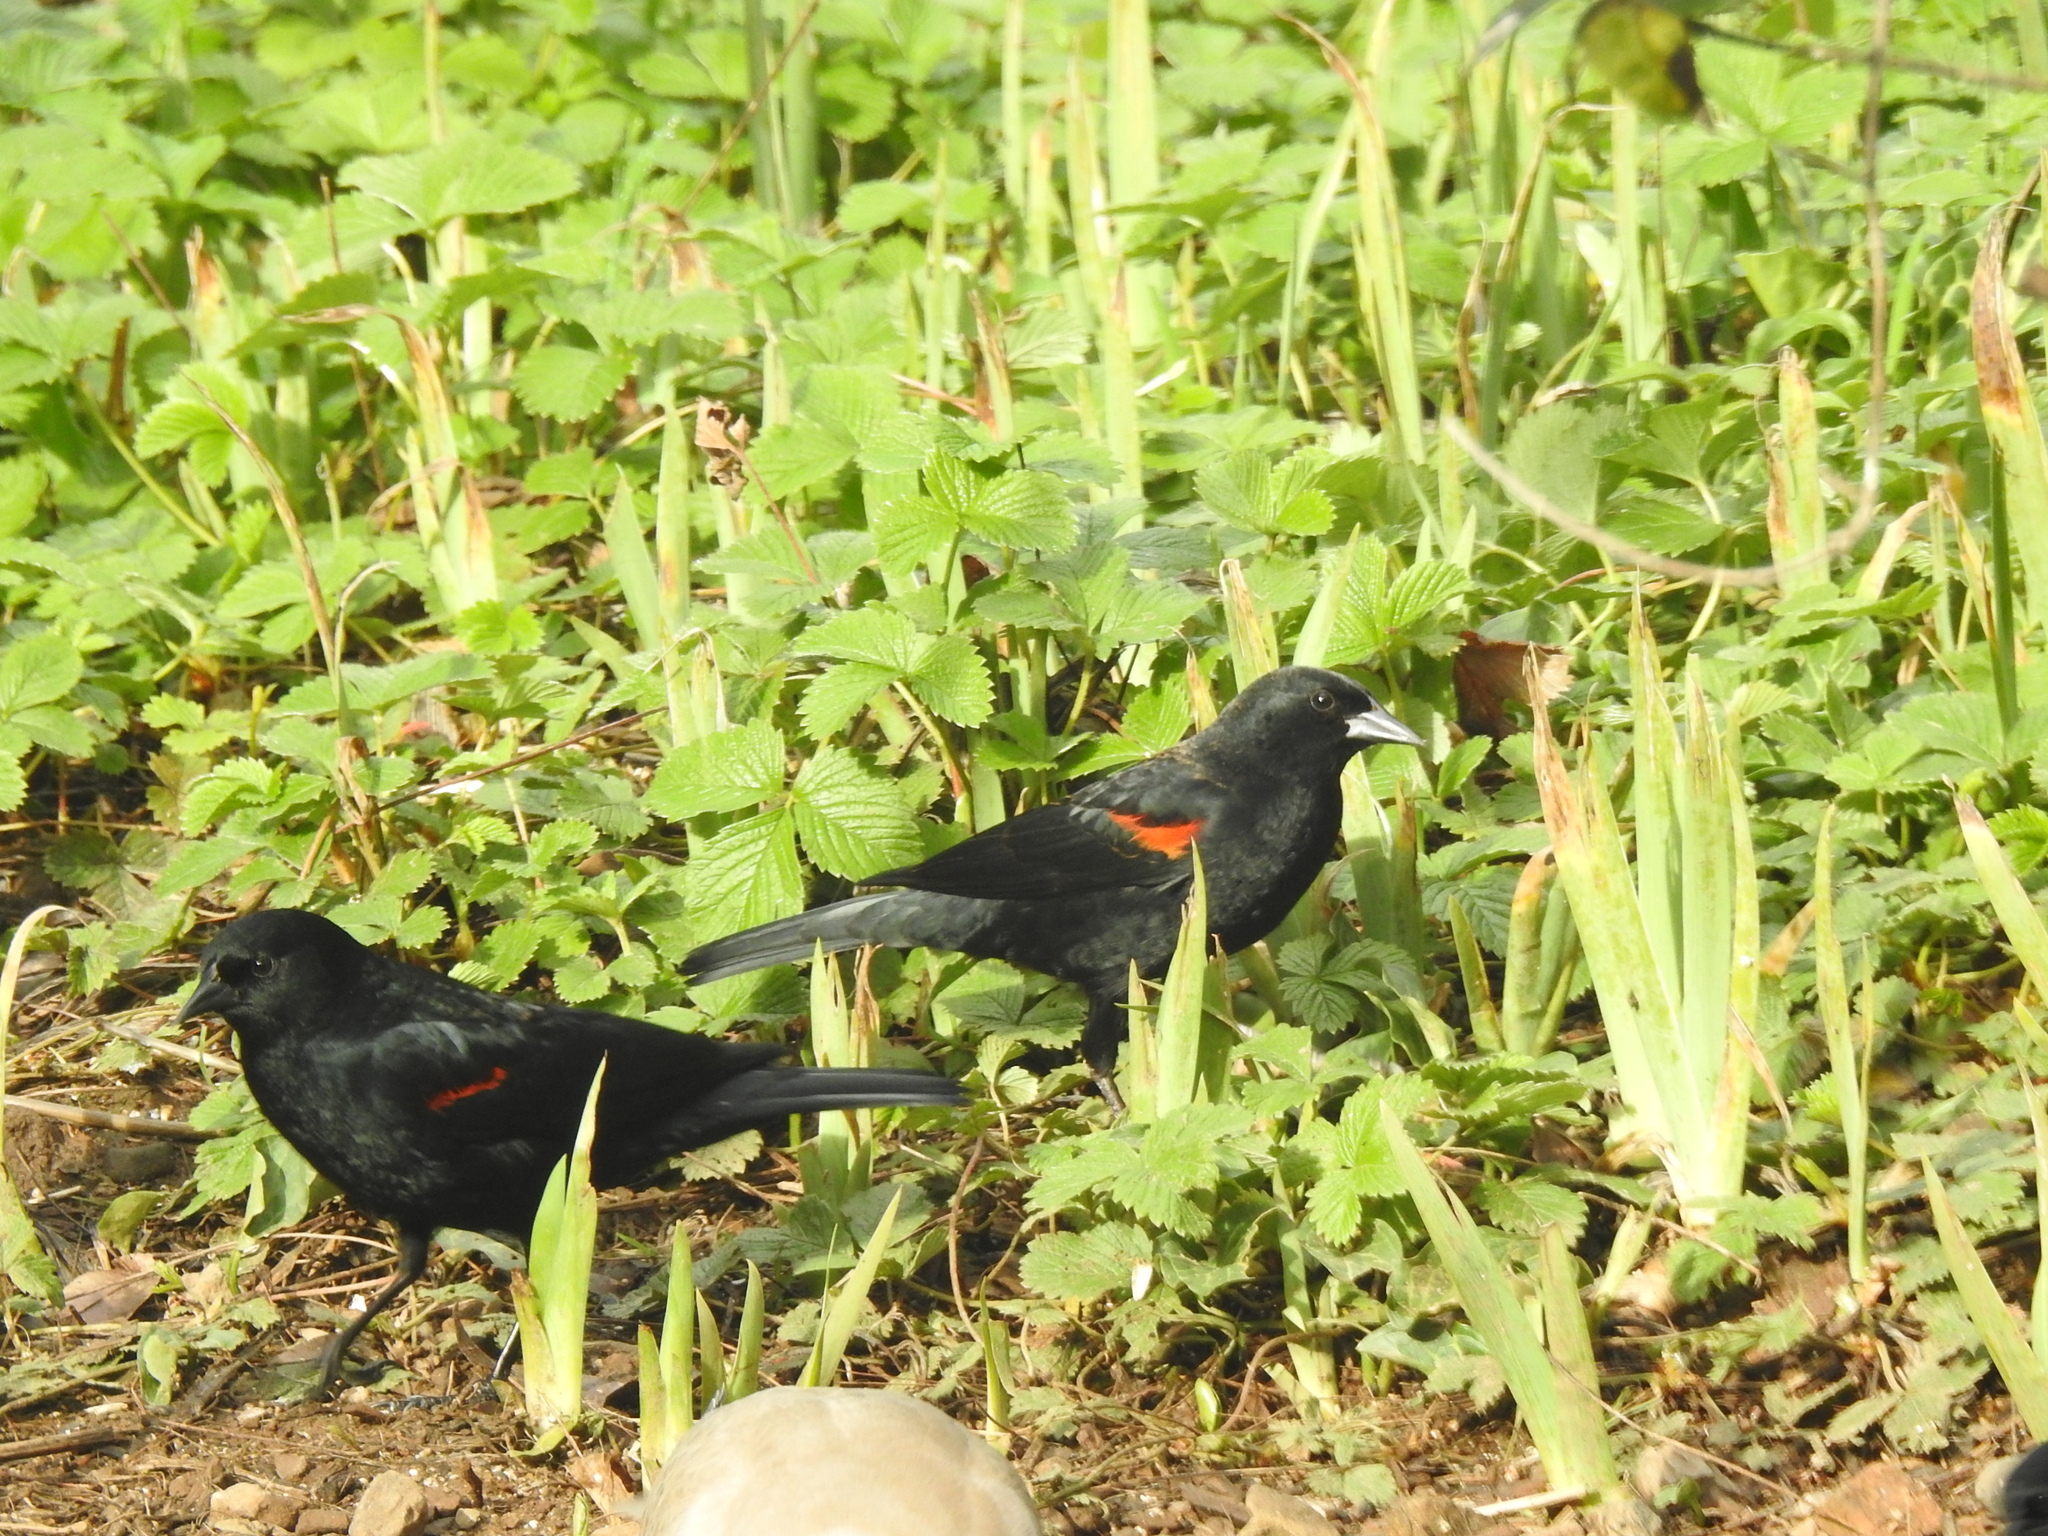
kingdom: Animalia
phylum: Chordata
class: Aves
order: Passeriformes
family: Icteridae
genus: Agelaius
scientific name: Agelaius phoeniceus
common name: Red-winged blackbird
